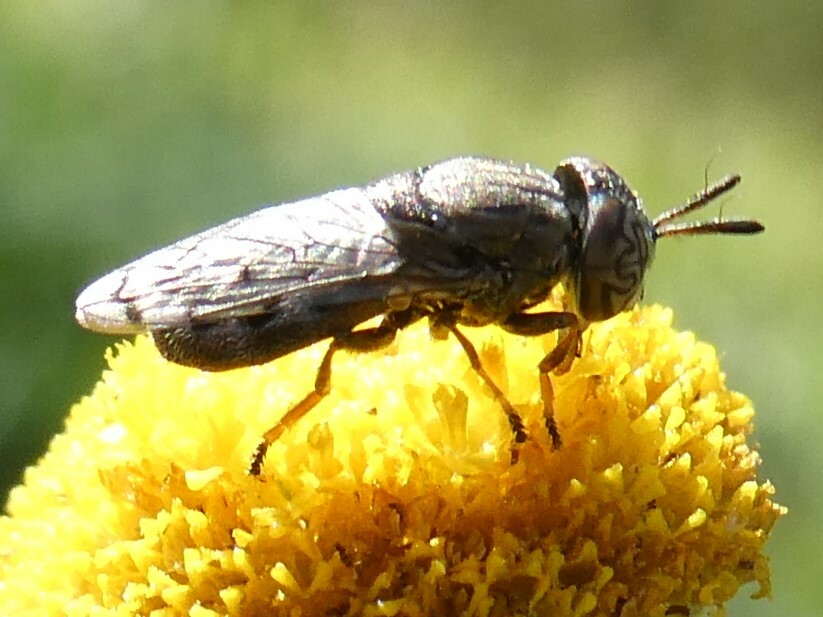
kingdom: Animalia
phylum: Arthropoda
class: Insecta
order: Diptera
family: Syrphidae
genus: Orthonevra
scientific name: Orthonevra nitida
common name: Wavy mucksucker
